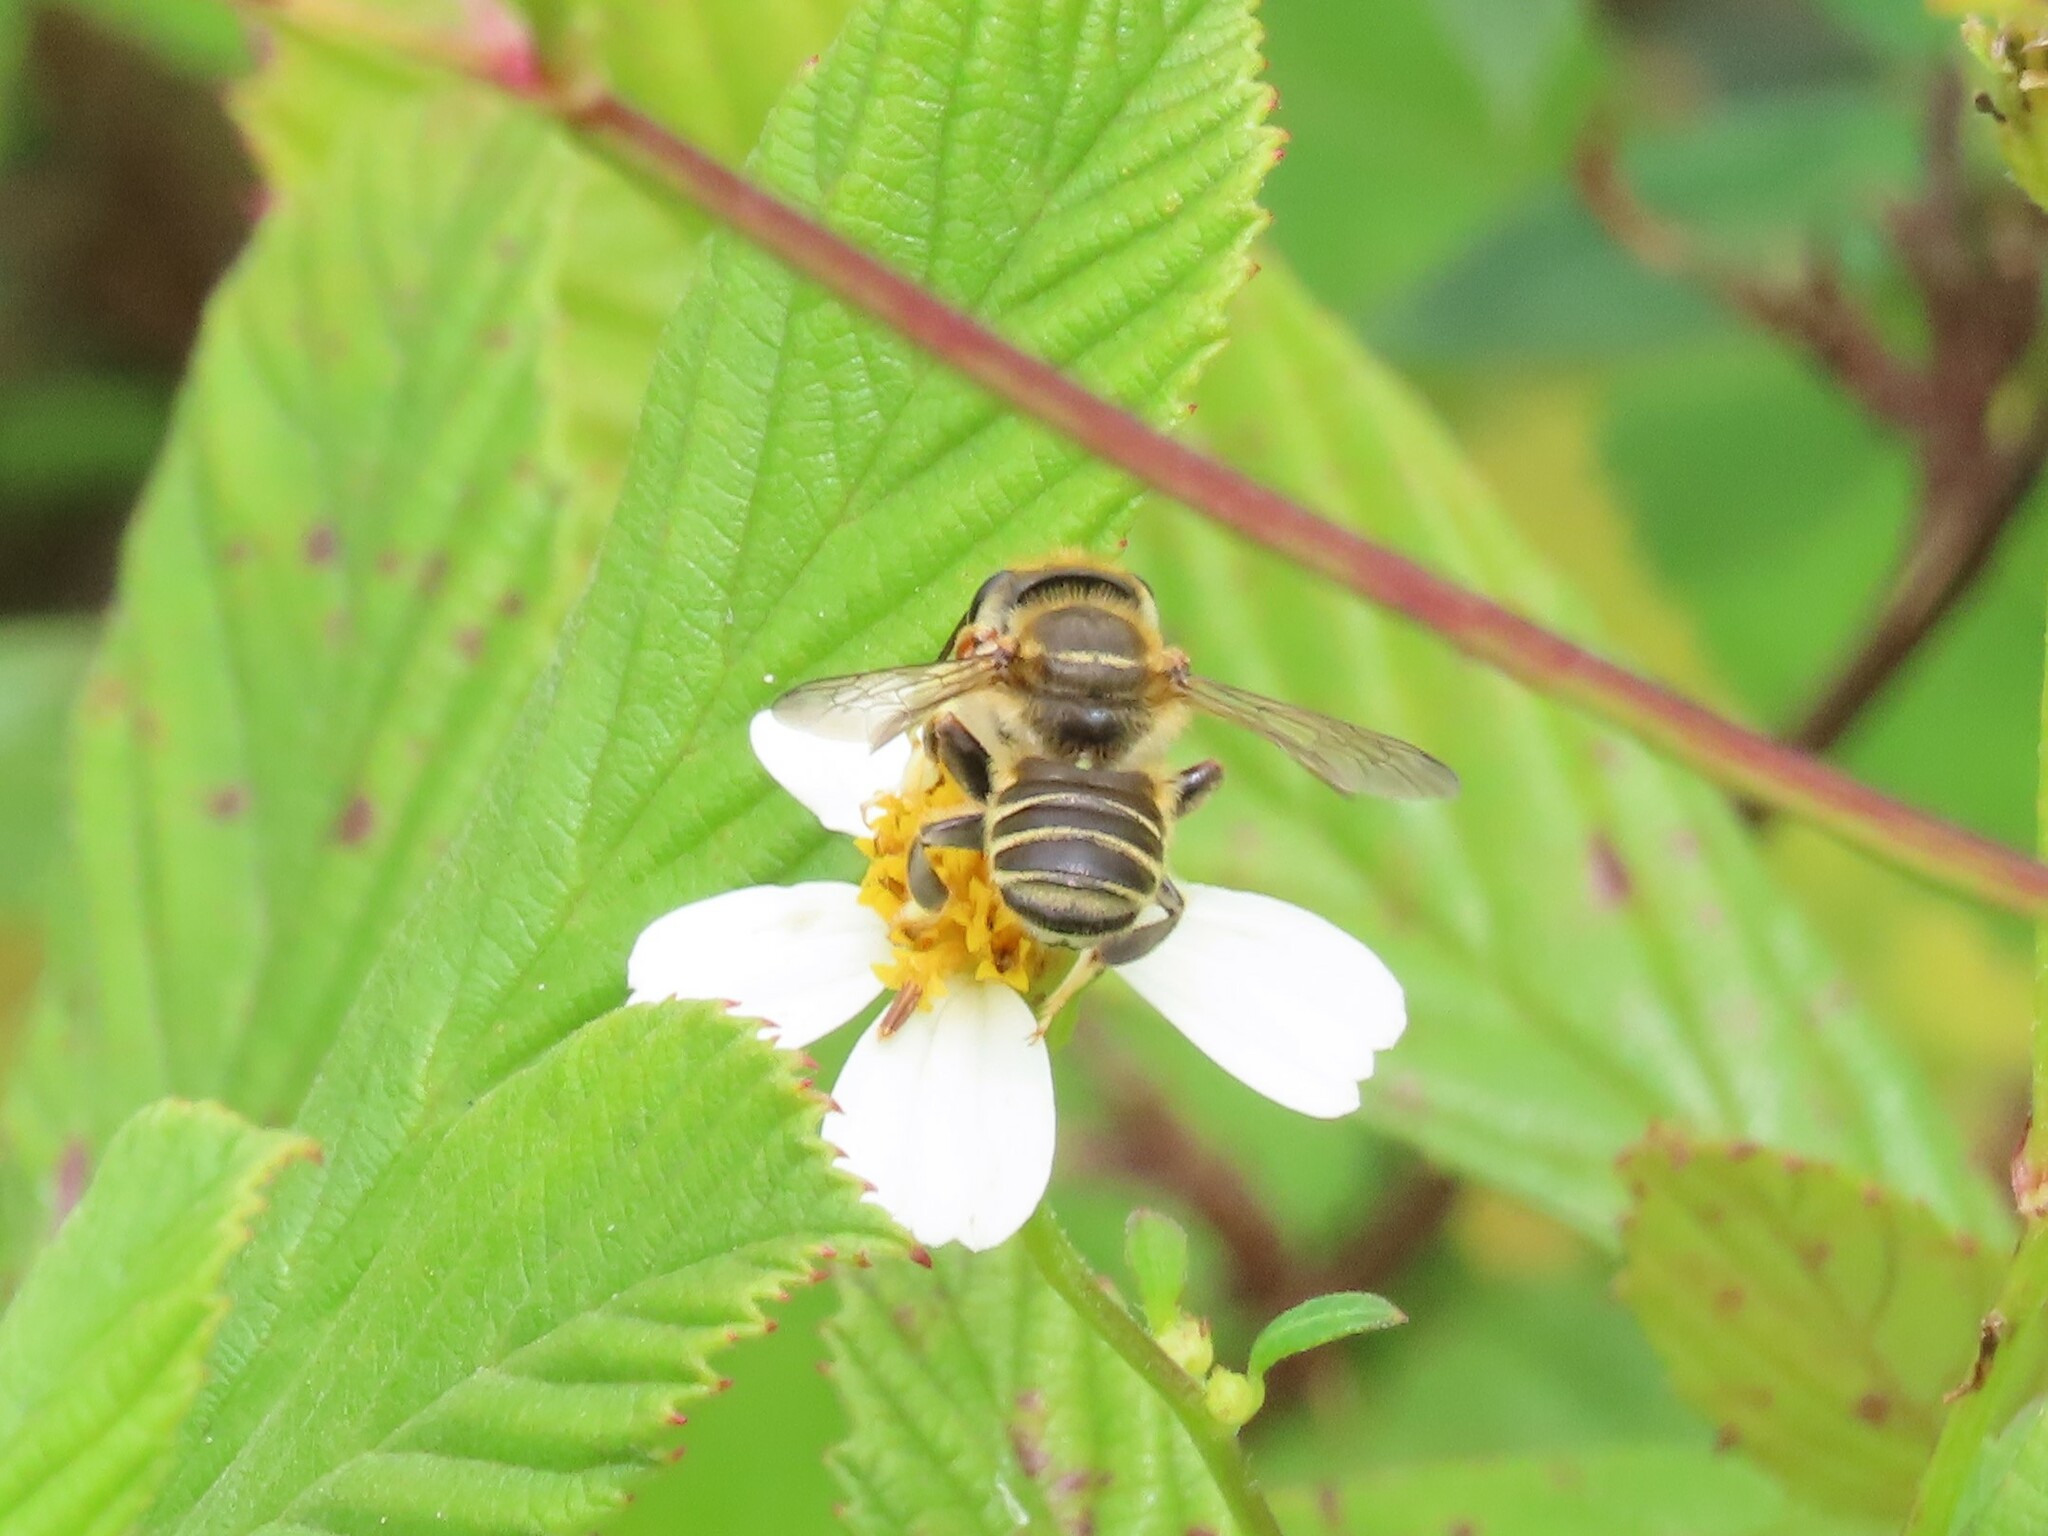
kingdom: Animalia
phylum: Arthropoda
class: Insecta
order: Hymenoptera
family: Megachilidae
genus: Megachile
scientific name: Megachile albitarsis
